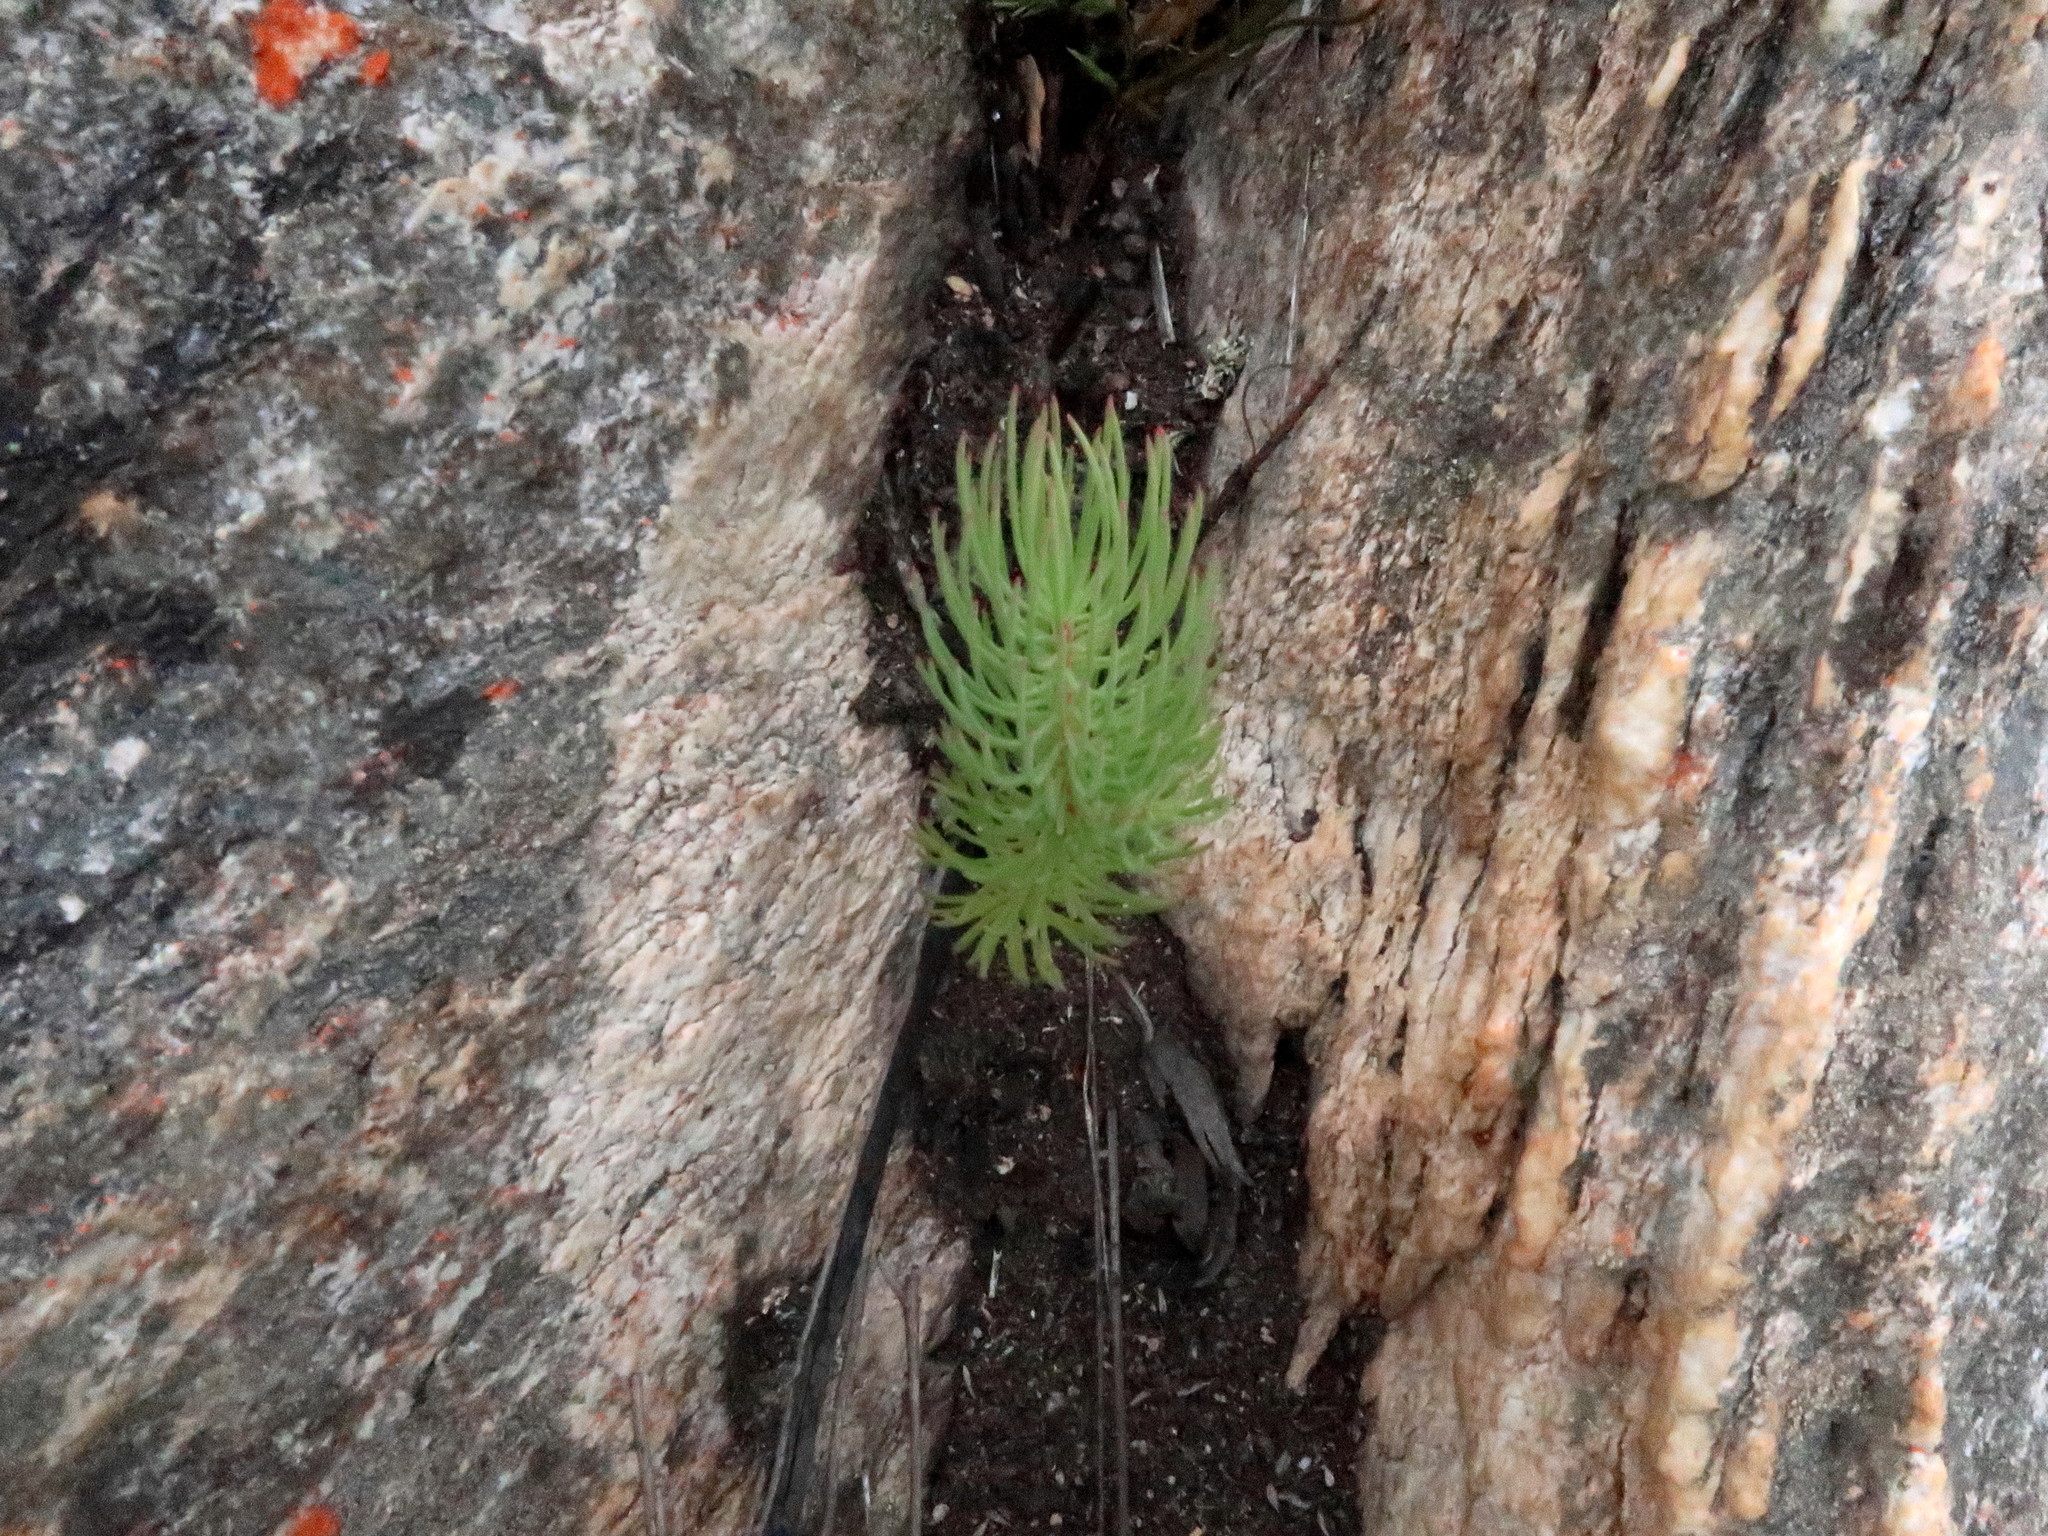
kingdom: Plantae
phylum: Tracheophyta
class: Magnoliopsida
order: Proteales
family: Proteaceae
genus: Leucadendron
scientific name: Leucadendron comosum
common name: Ridge-cone conebush
